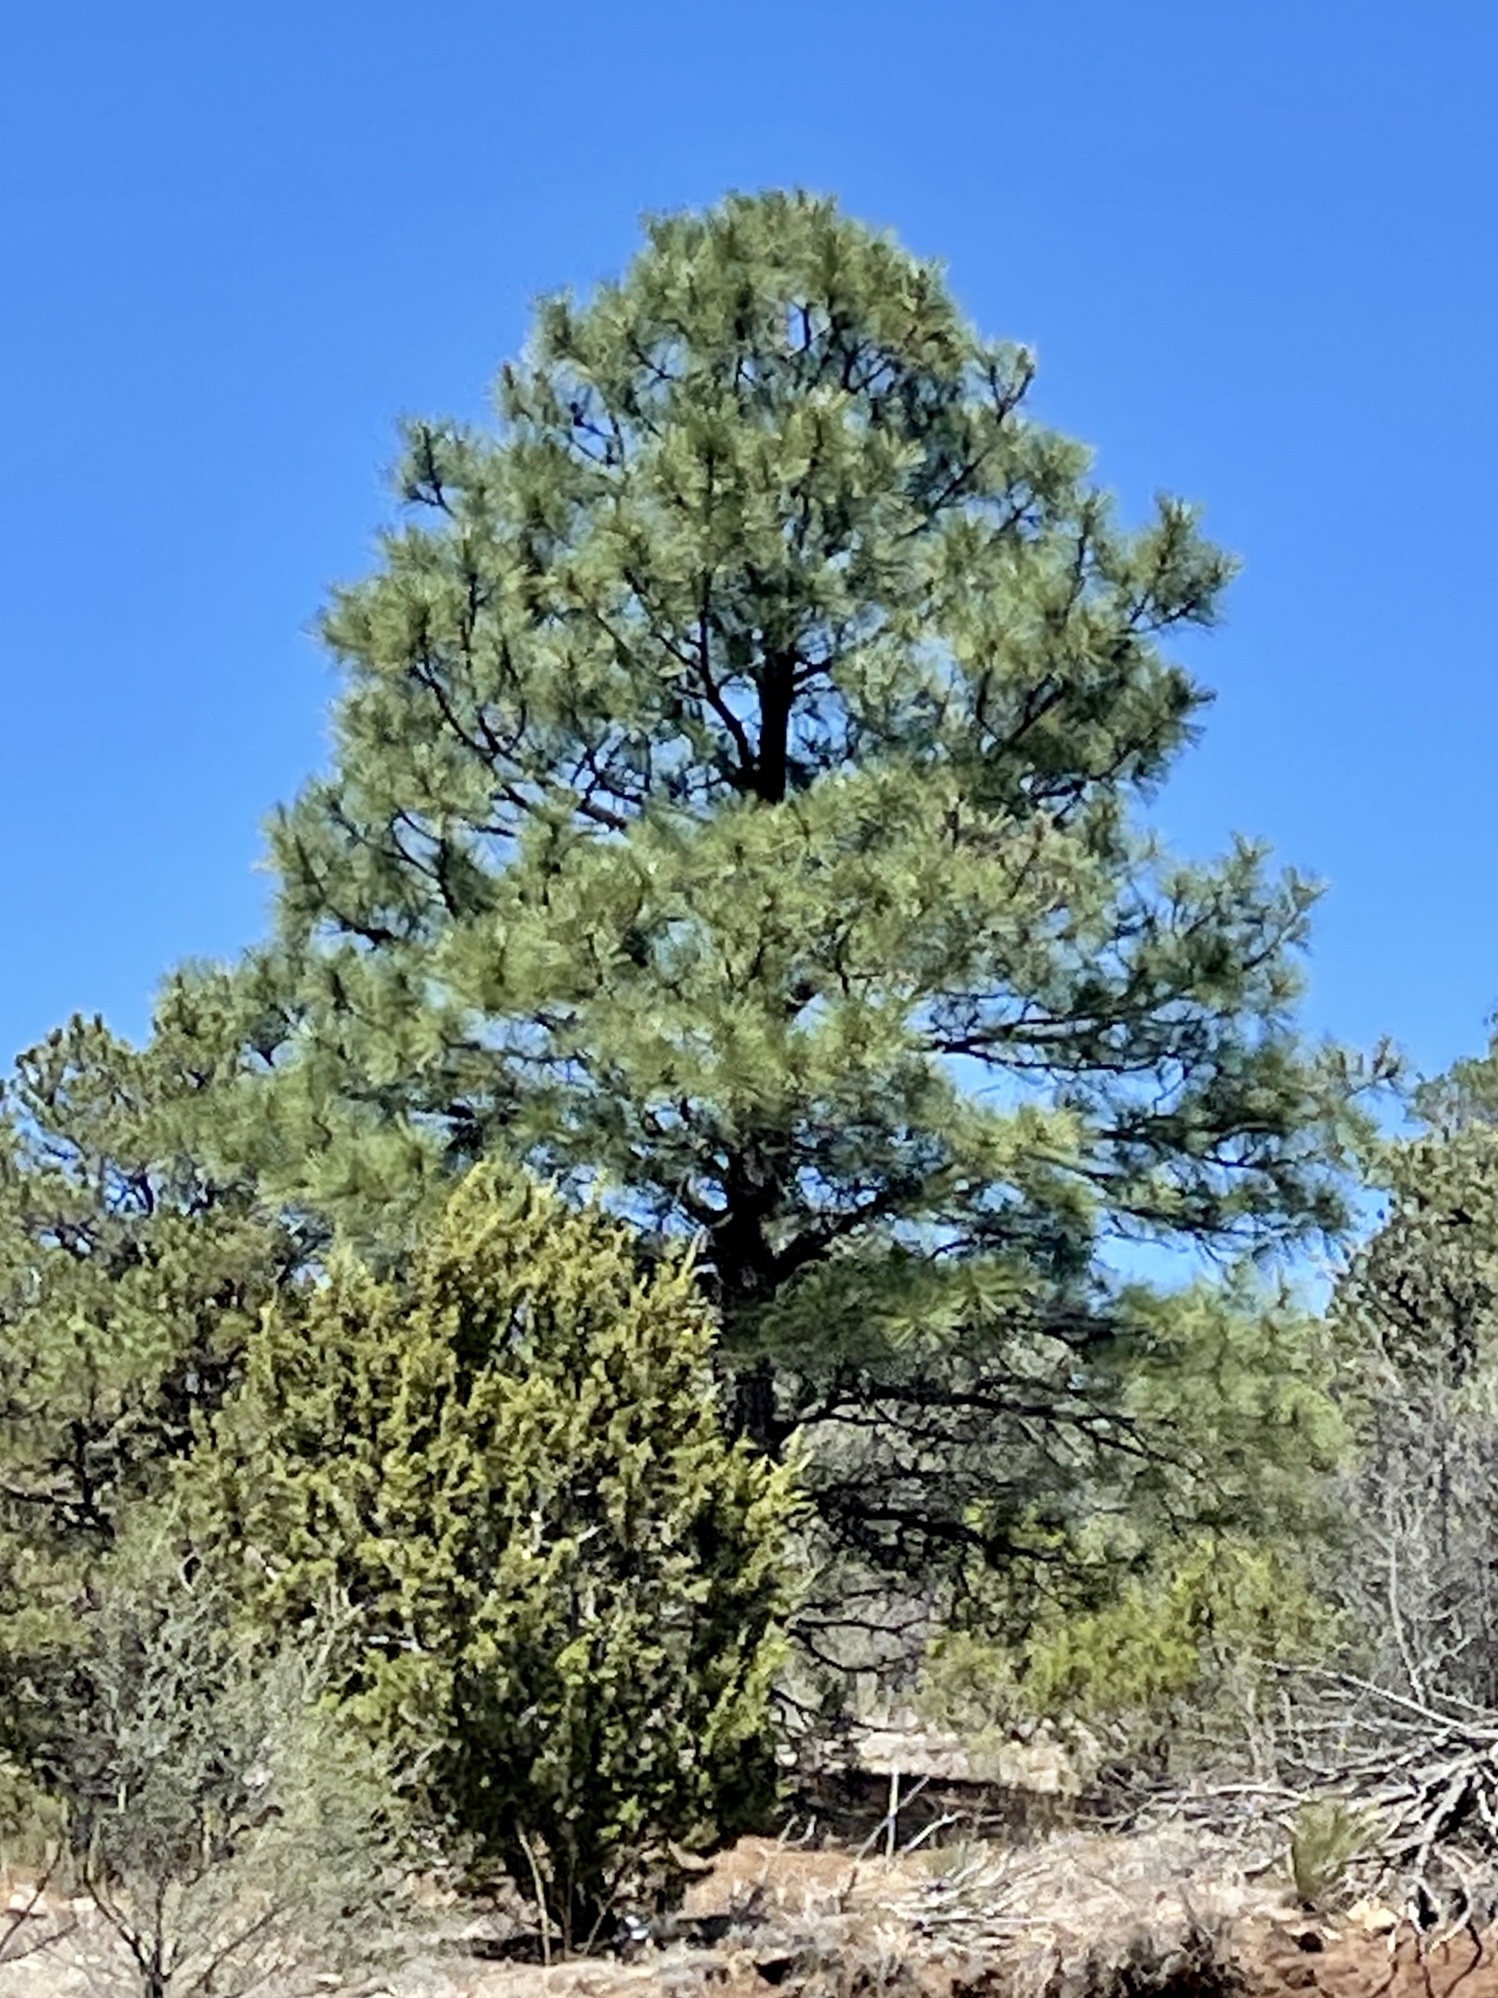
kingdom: Plantae
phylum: Tracheophyta
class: Pinopsida
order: Pinales
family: Pinaceae
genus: Pinus
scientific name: Pinus ponderosa
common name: Western yellow-pine
